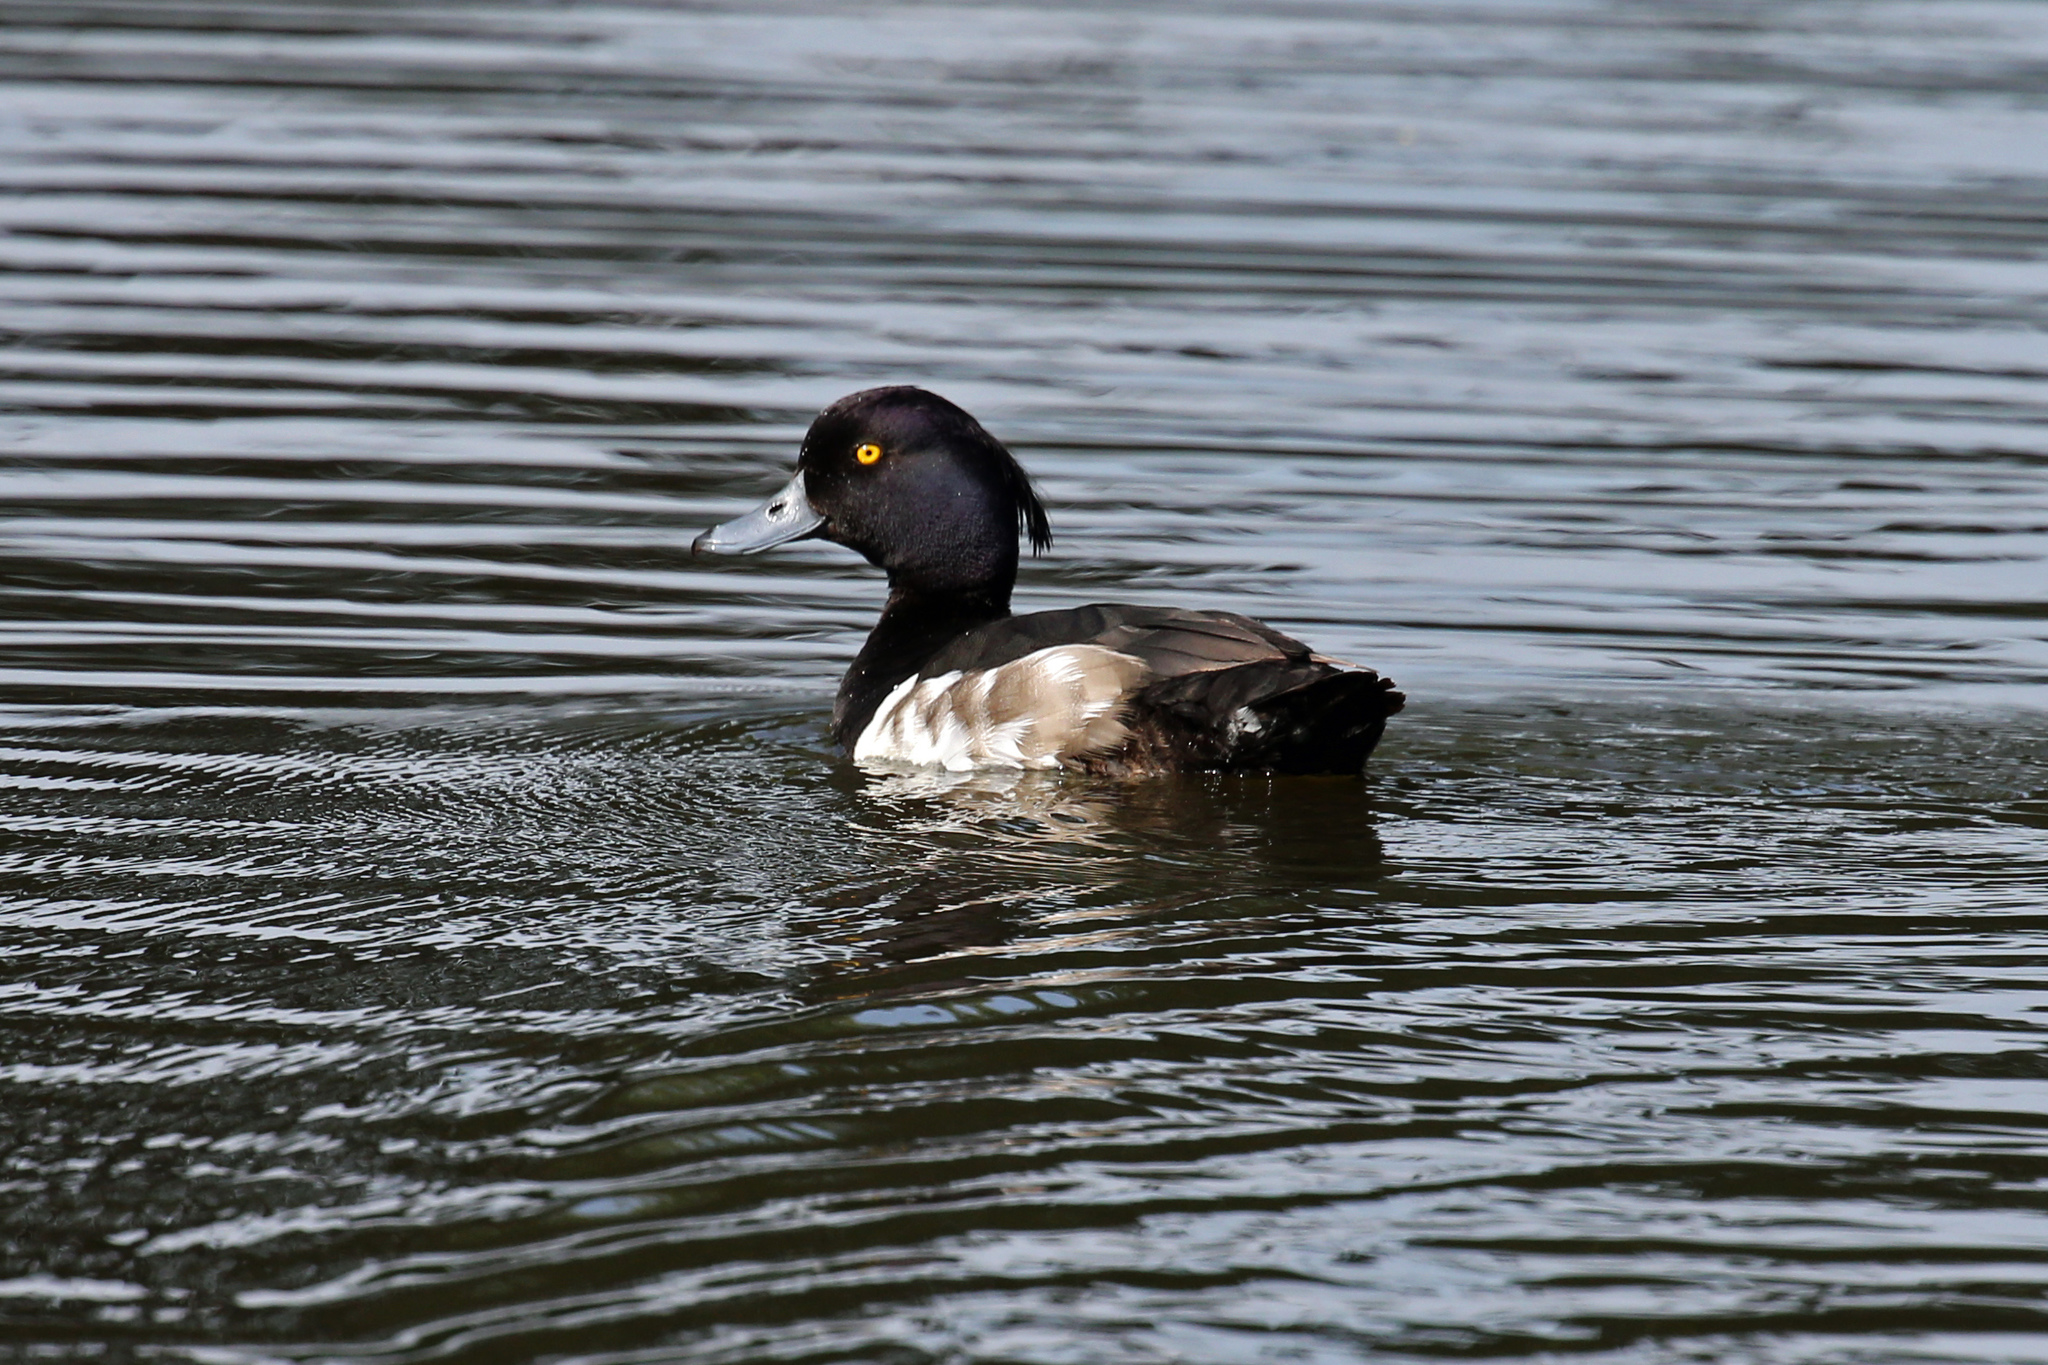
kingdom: Animalia
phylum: Chordata
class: Aves
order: Anseriformes
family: Anatidae
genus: Aythya
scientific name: Aythya fuligula
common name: Tufted duck
